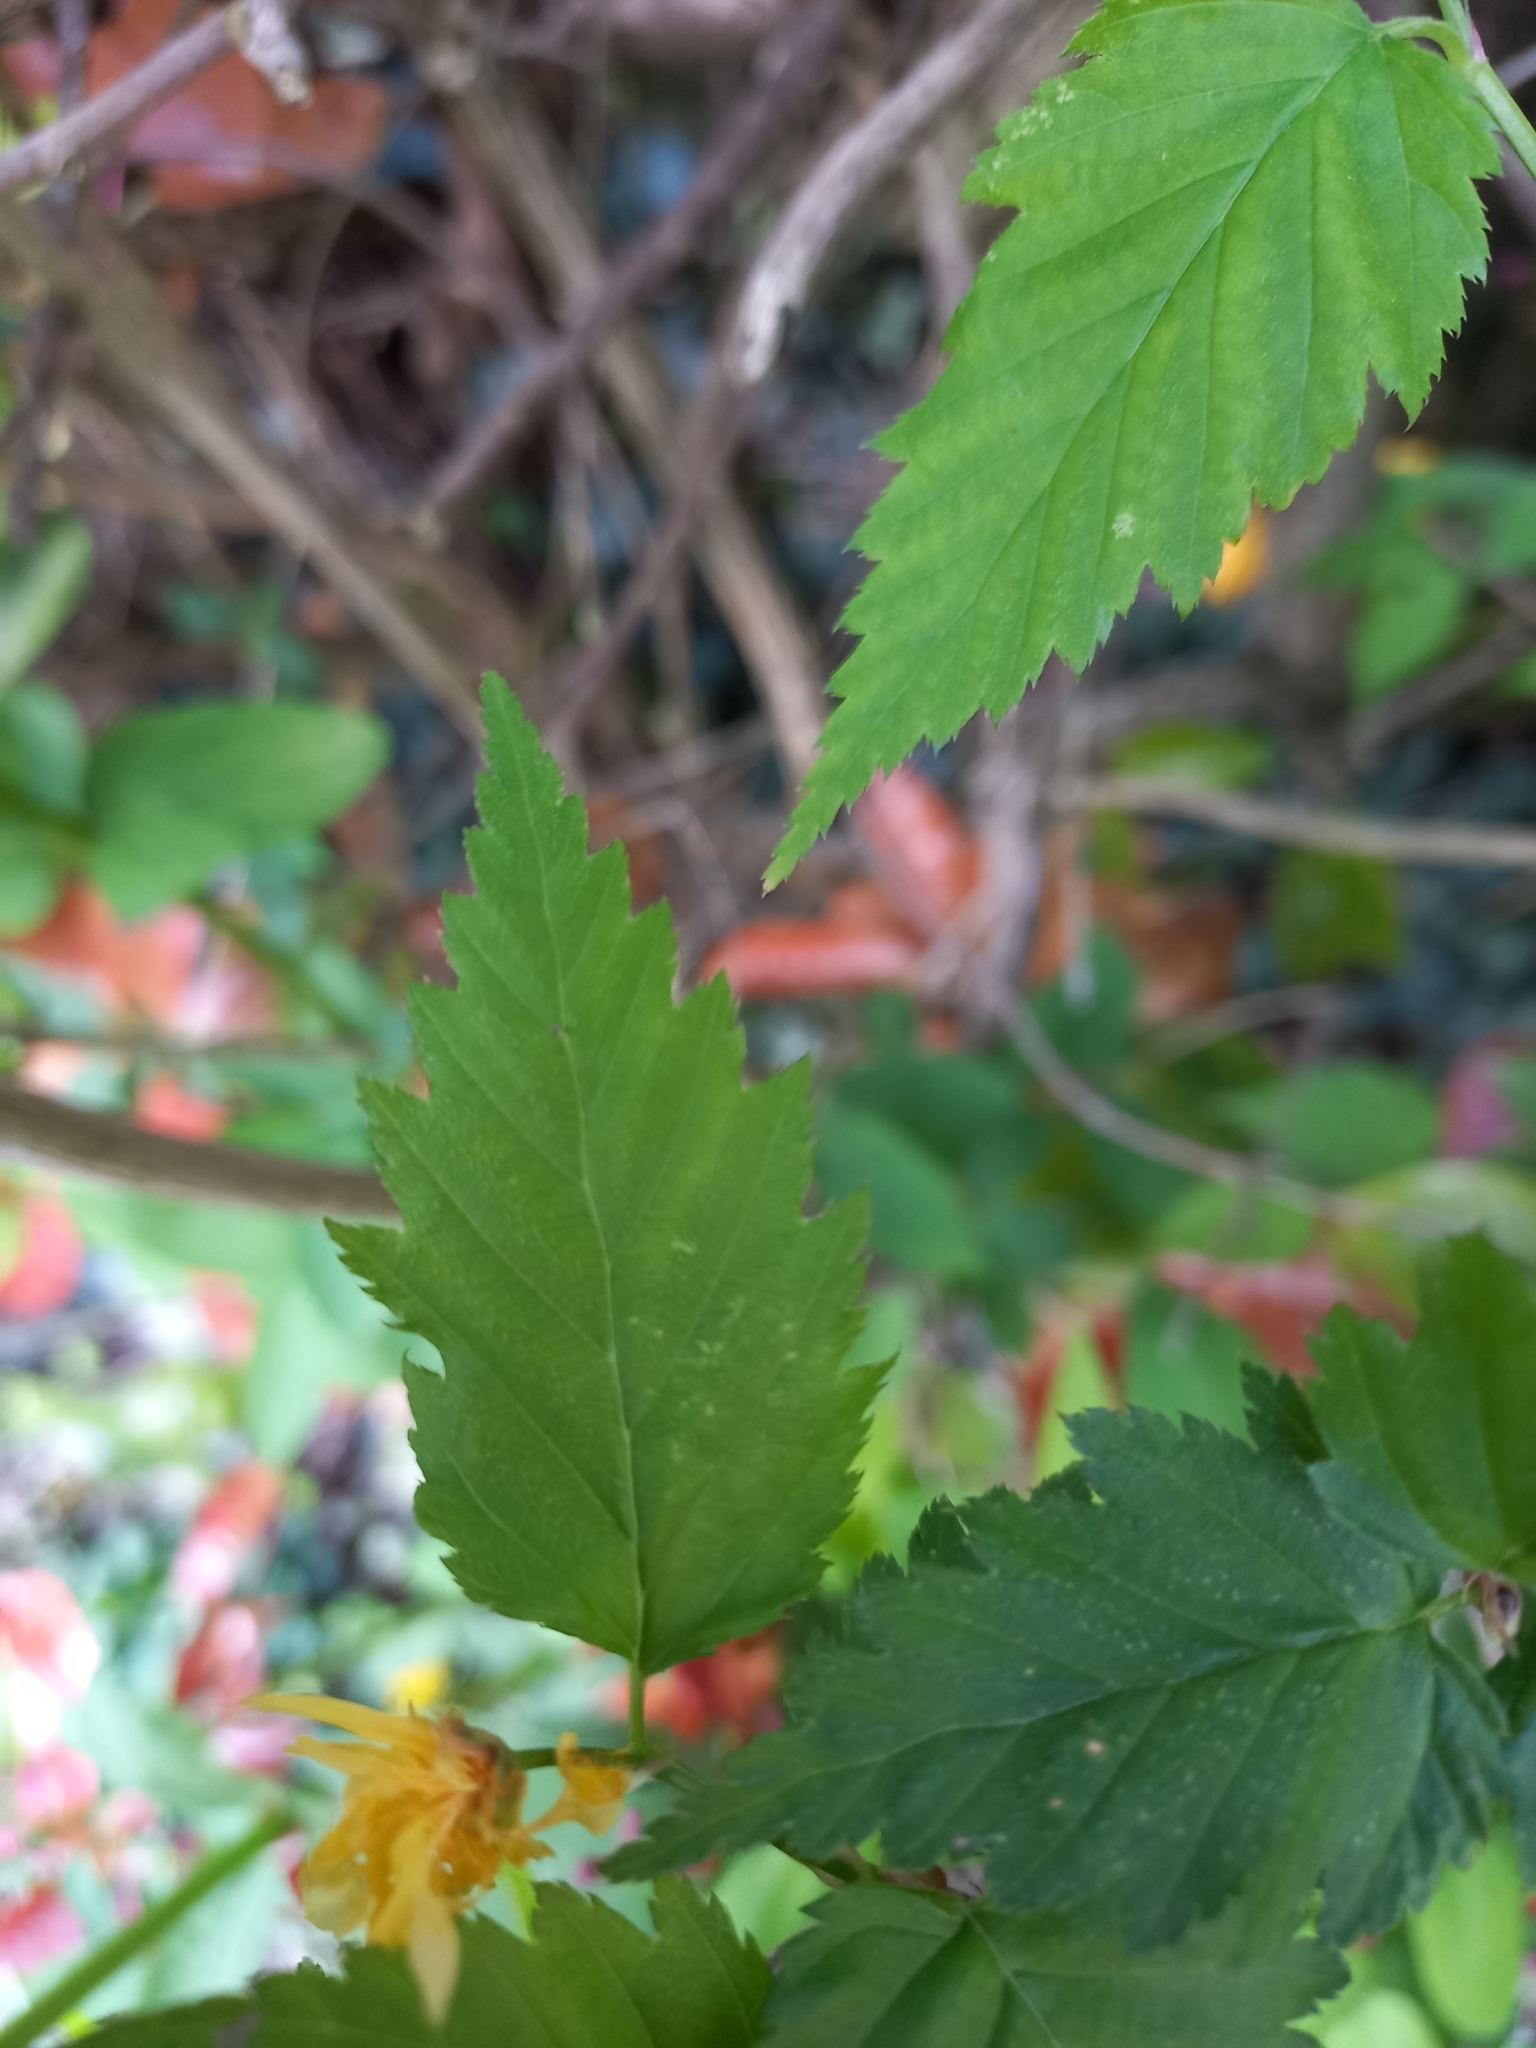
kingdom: Plantae
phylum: Tracheophyta
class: Magnoliopsida
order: Rosales
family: Rosaceae
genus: Kerria
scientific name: Kerria japonica
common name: Japanese kerria
